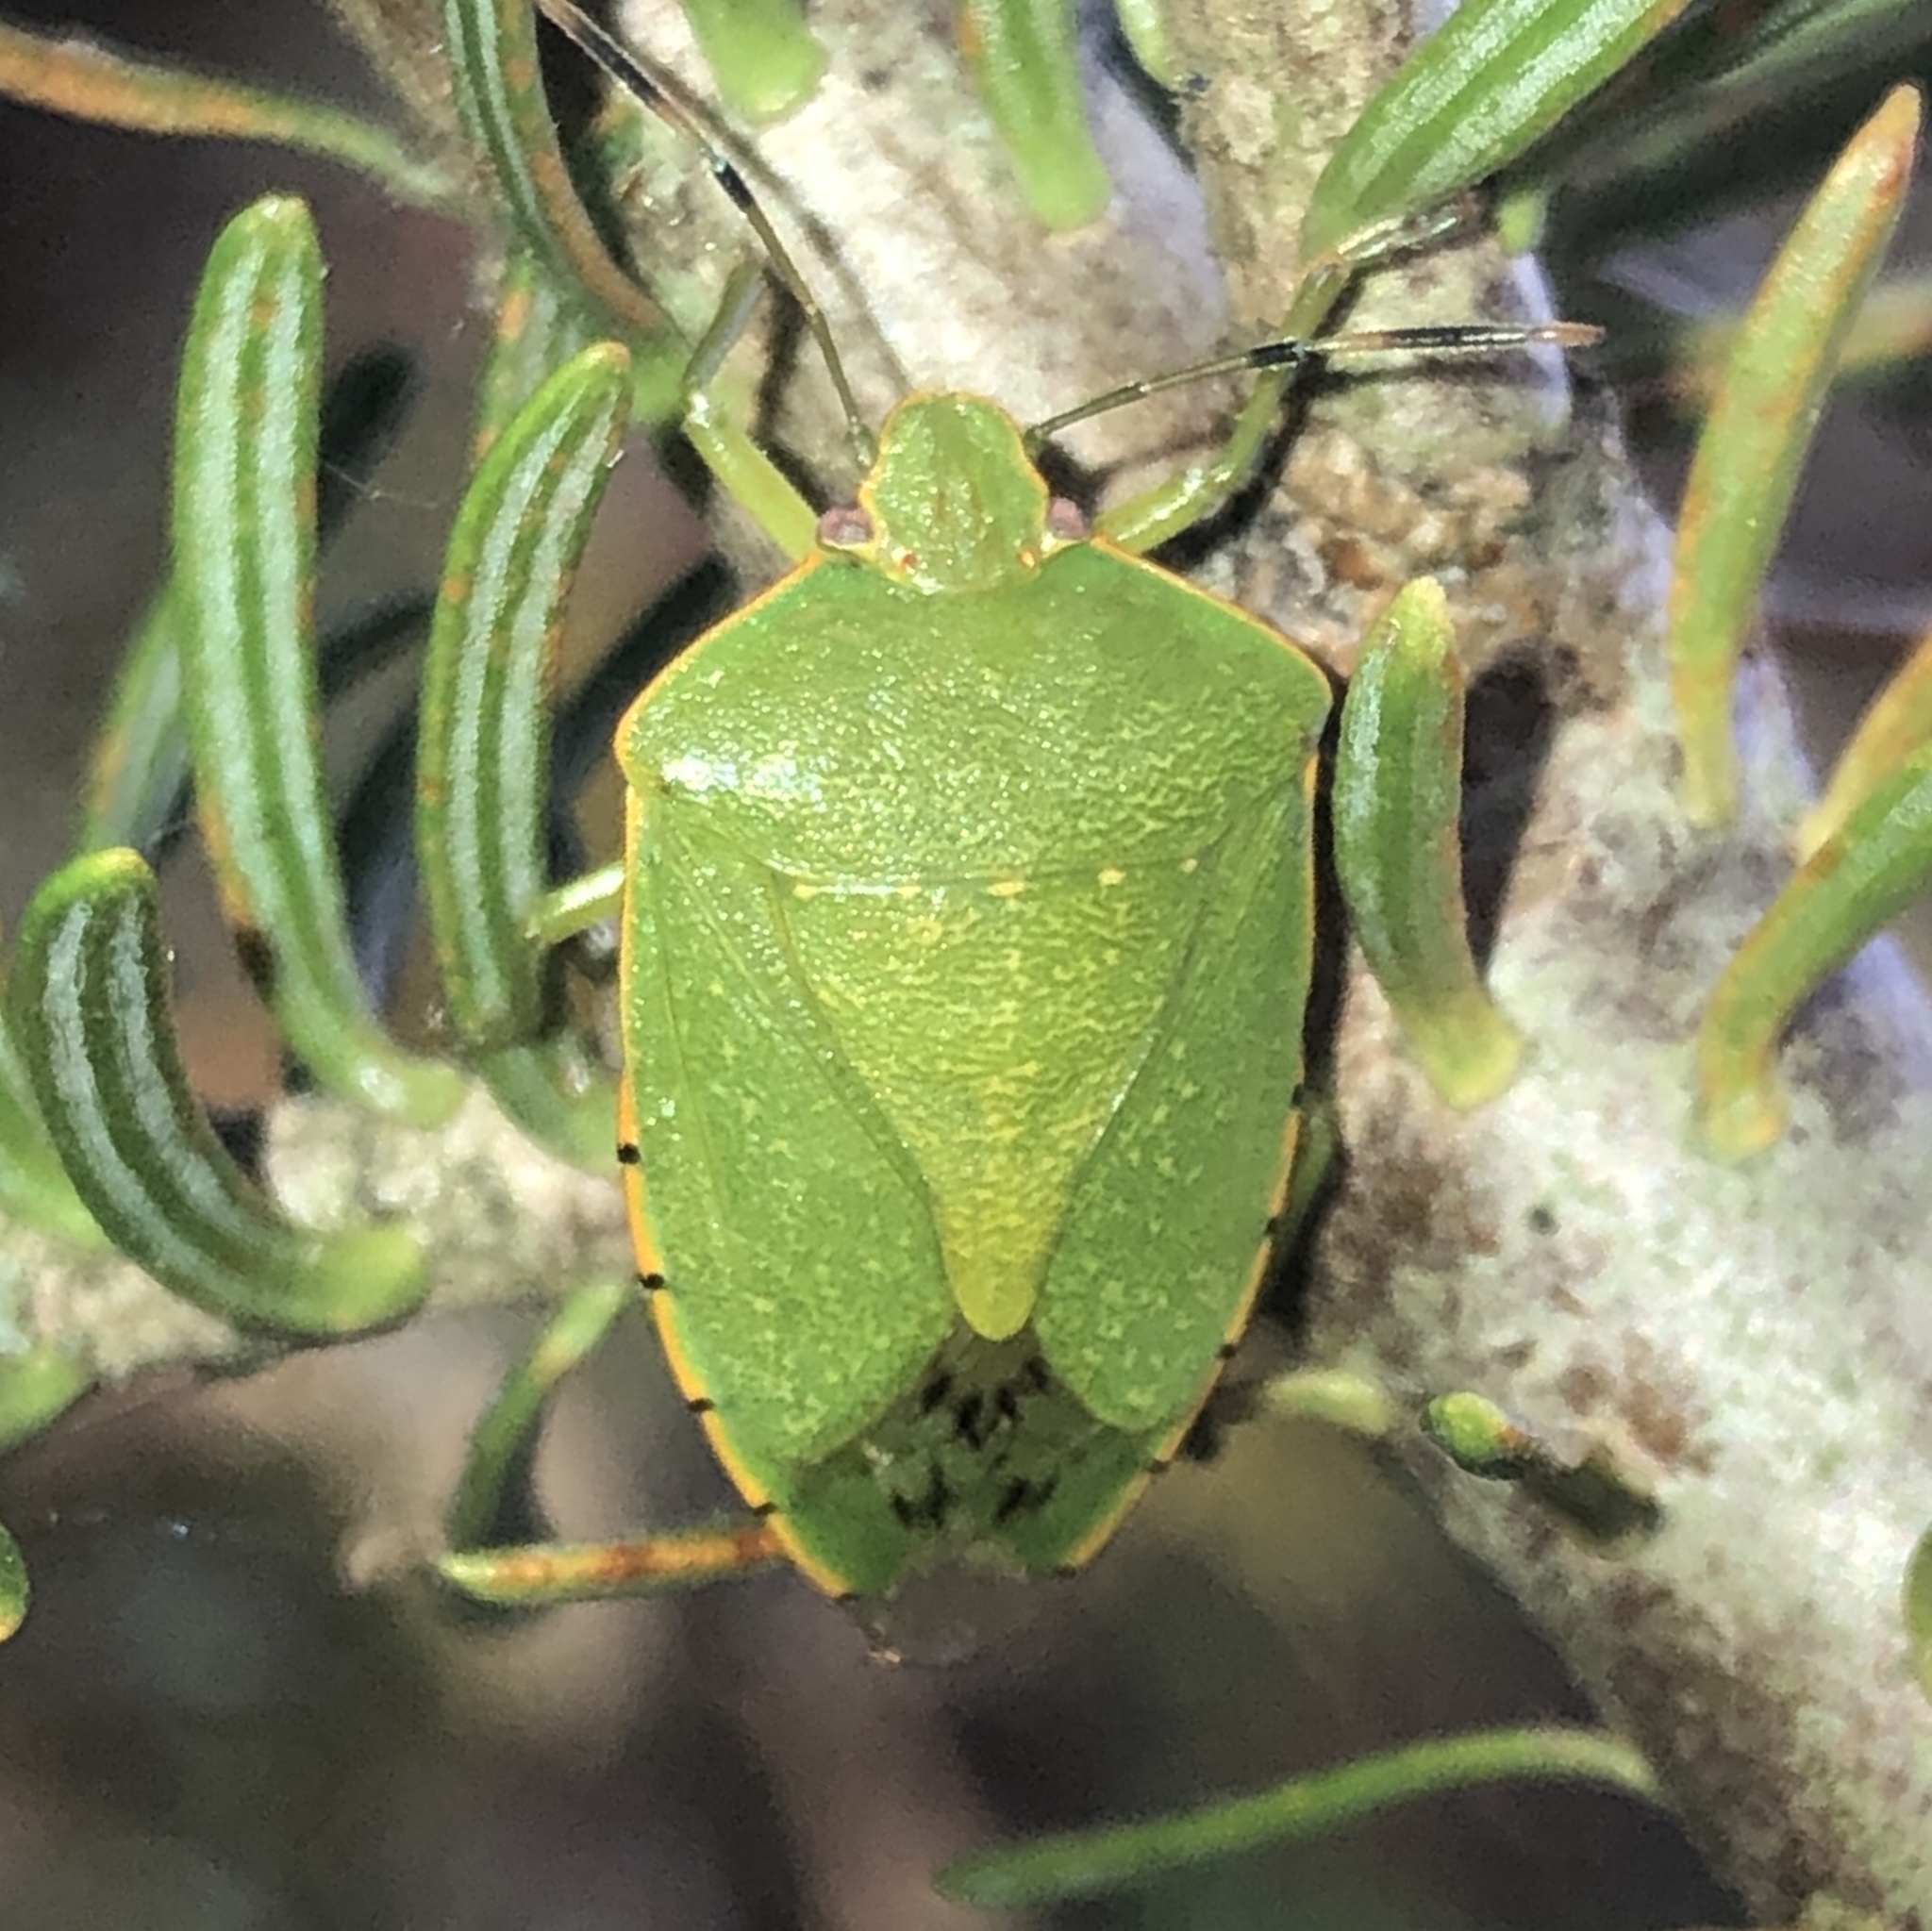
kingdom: Animalia
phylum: Arthropoda
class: Insecta
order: Hemiptera
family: Pentatomidae
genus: Chinavia
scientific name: Chinavia hilaris
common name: Green stink bug
